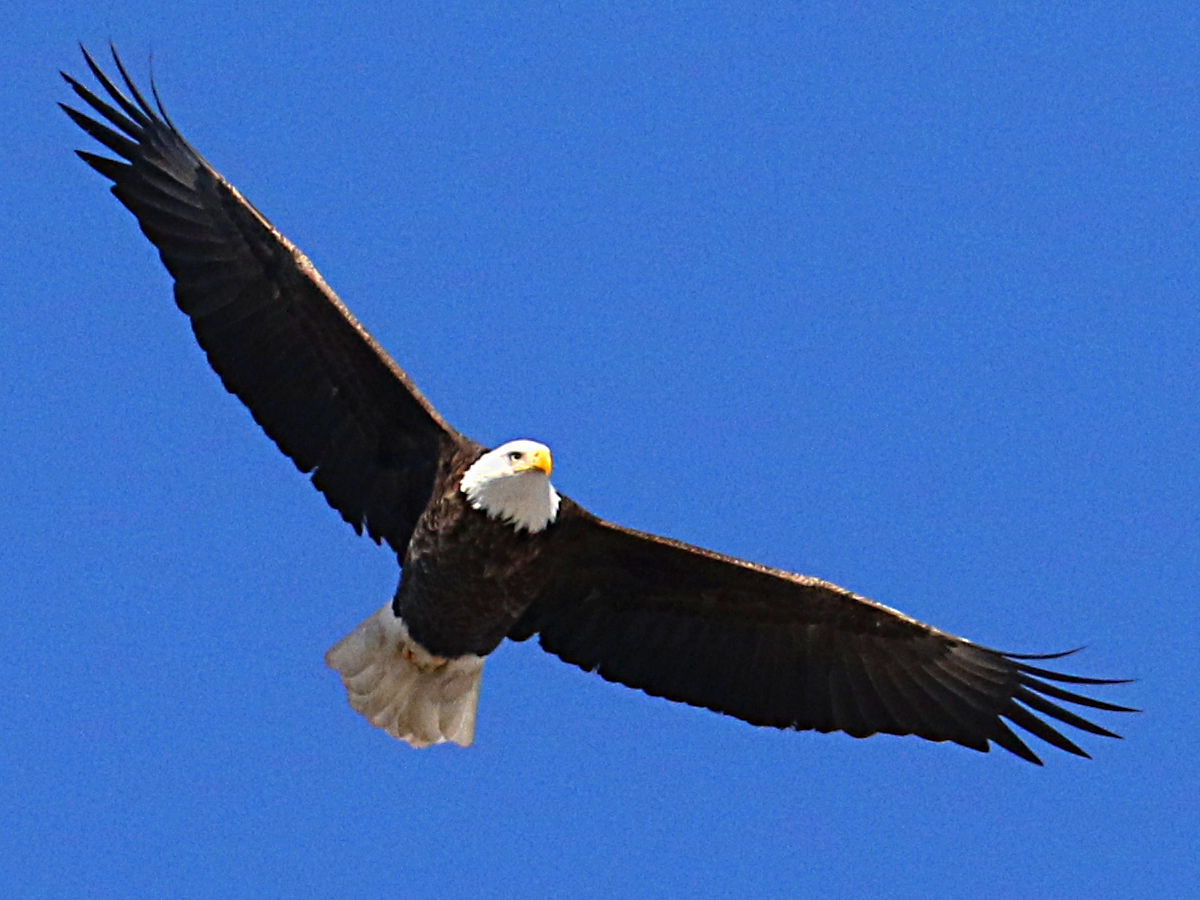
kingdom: Animalia
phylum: Chordata
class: Aves
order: Accipitriformes
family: Accipitridae
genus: Haliaeetus
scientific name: Haliaeetus leucocephalus
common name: Bald eagle
